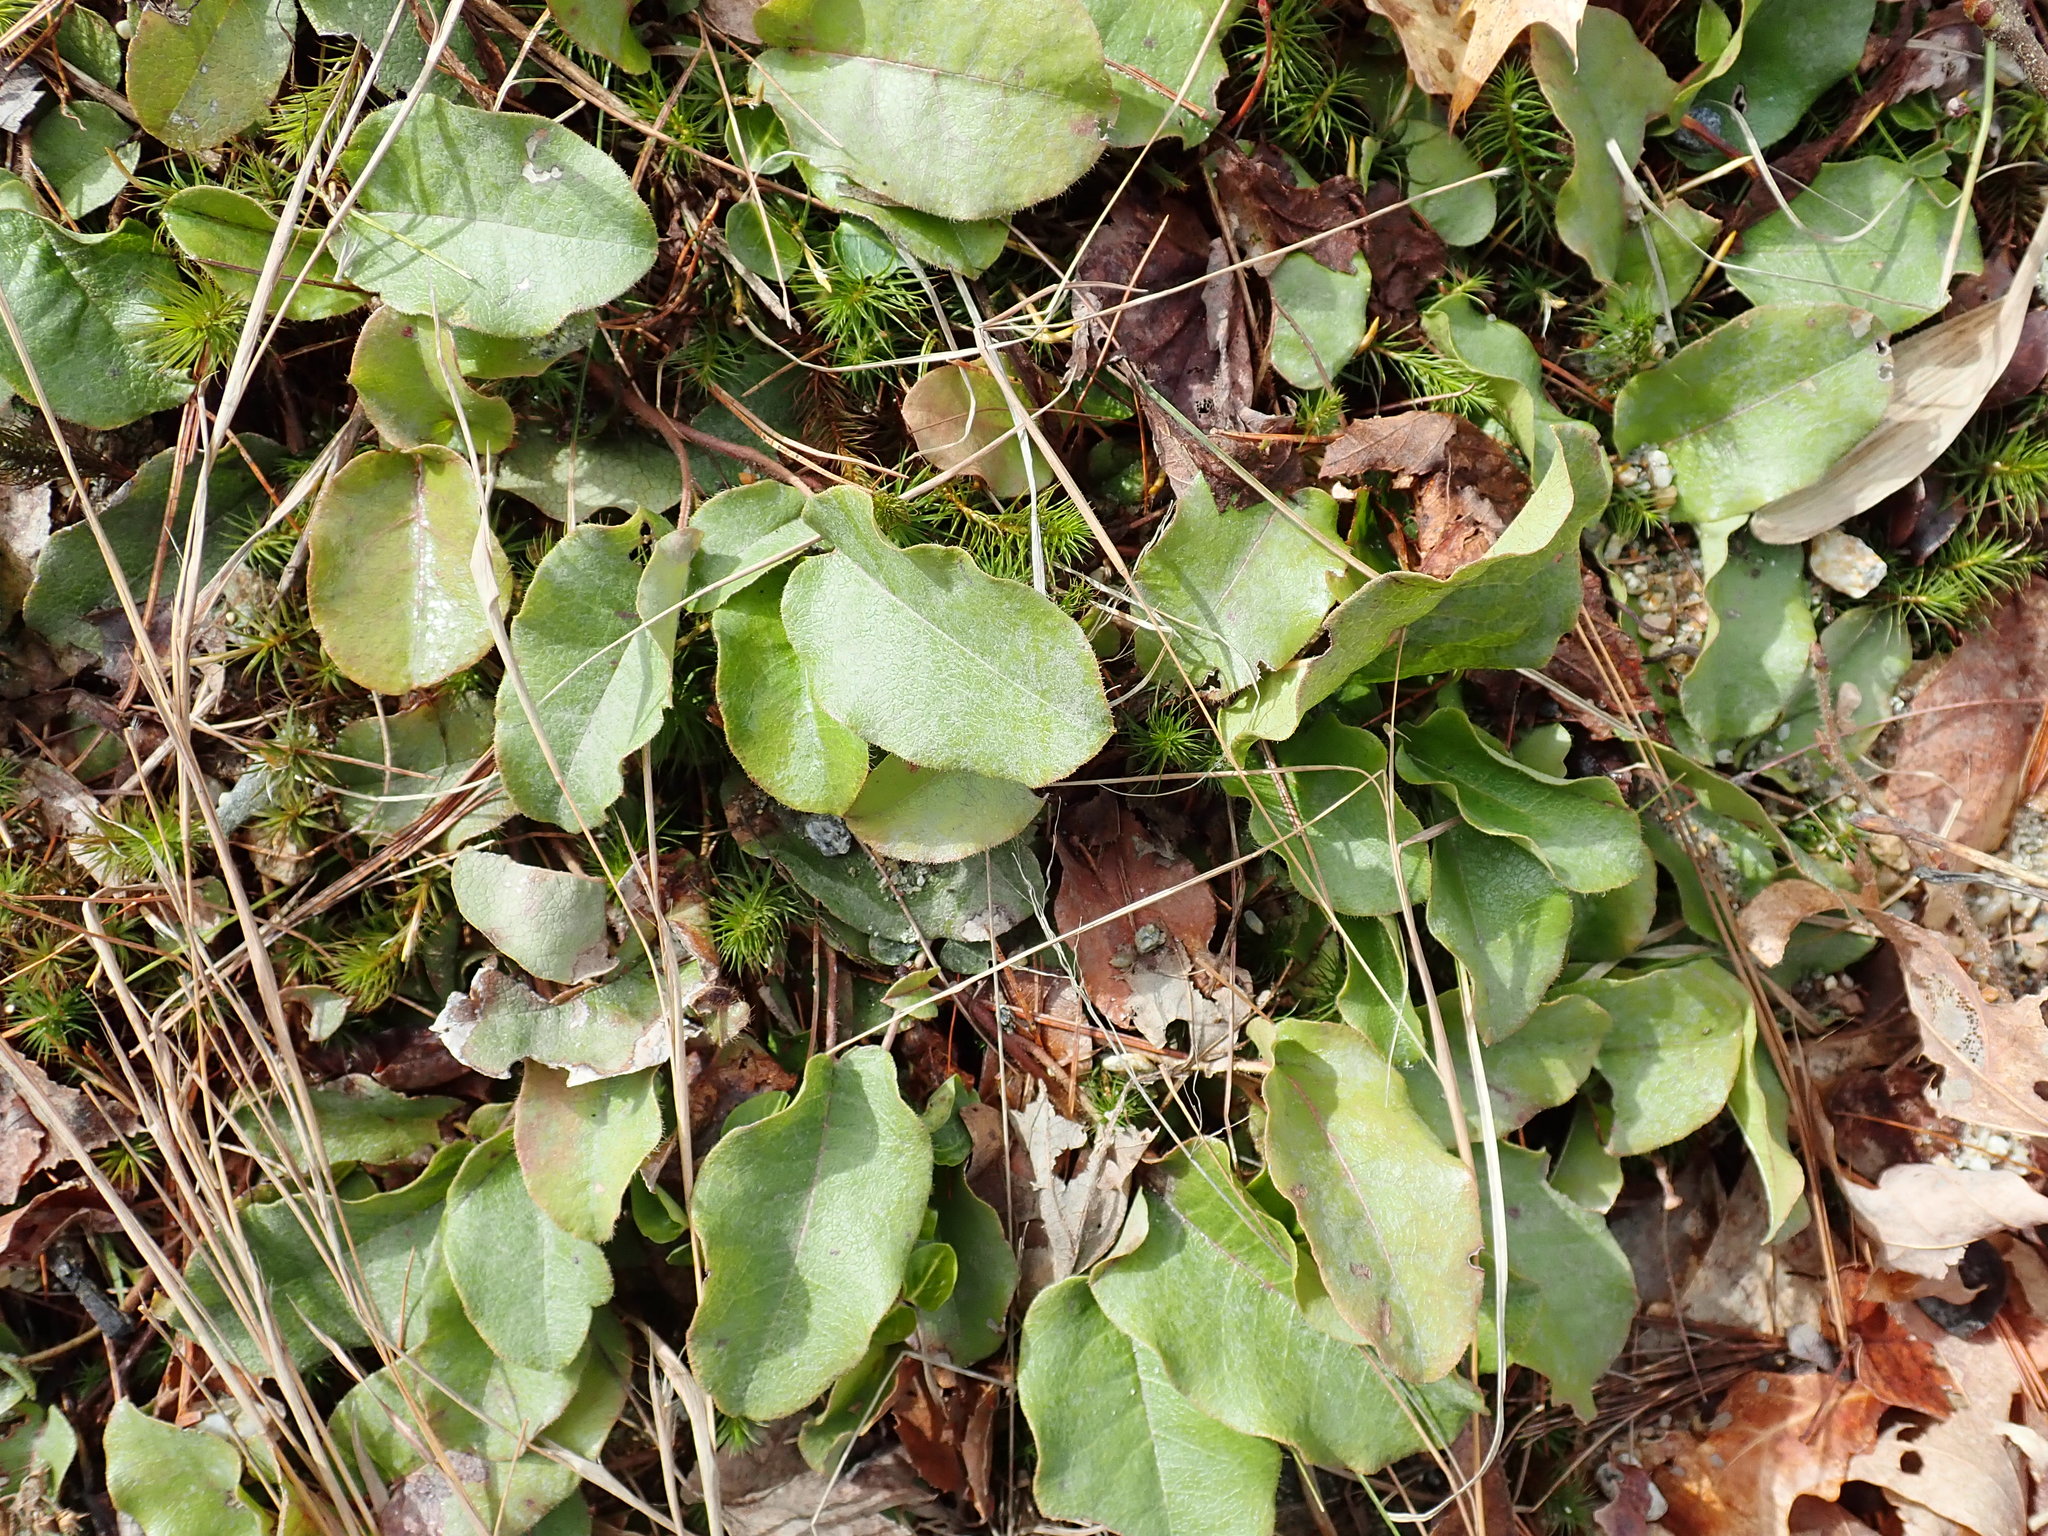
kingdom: Plantae
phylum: Tracheophyta
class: Magnoliopsida
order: Ericales
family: Ericaceae
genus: Epigaea
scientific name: Epigaea repens
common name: Gravelroot
